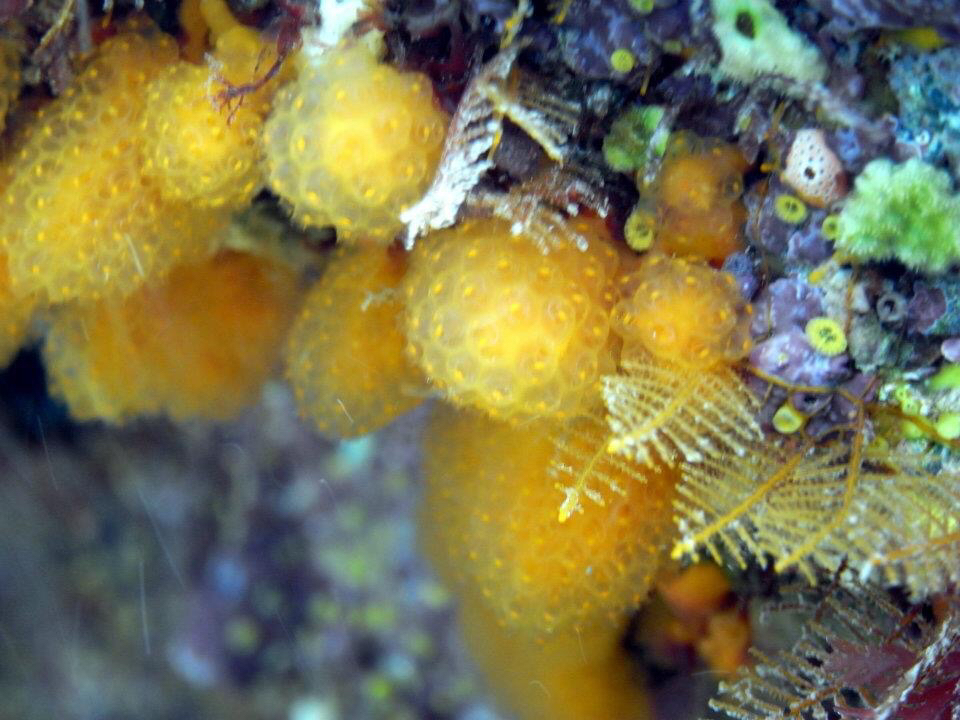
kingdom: Animalia
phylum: Chordata
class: Ascidiacea
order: Aplousobranchia
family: Pseudodistomidae
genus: Pseudodistoma
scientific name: Pseudodistoma novaezelandiae
